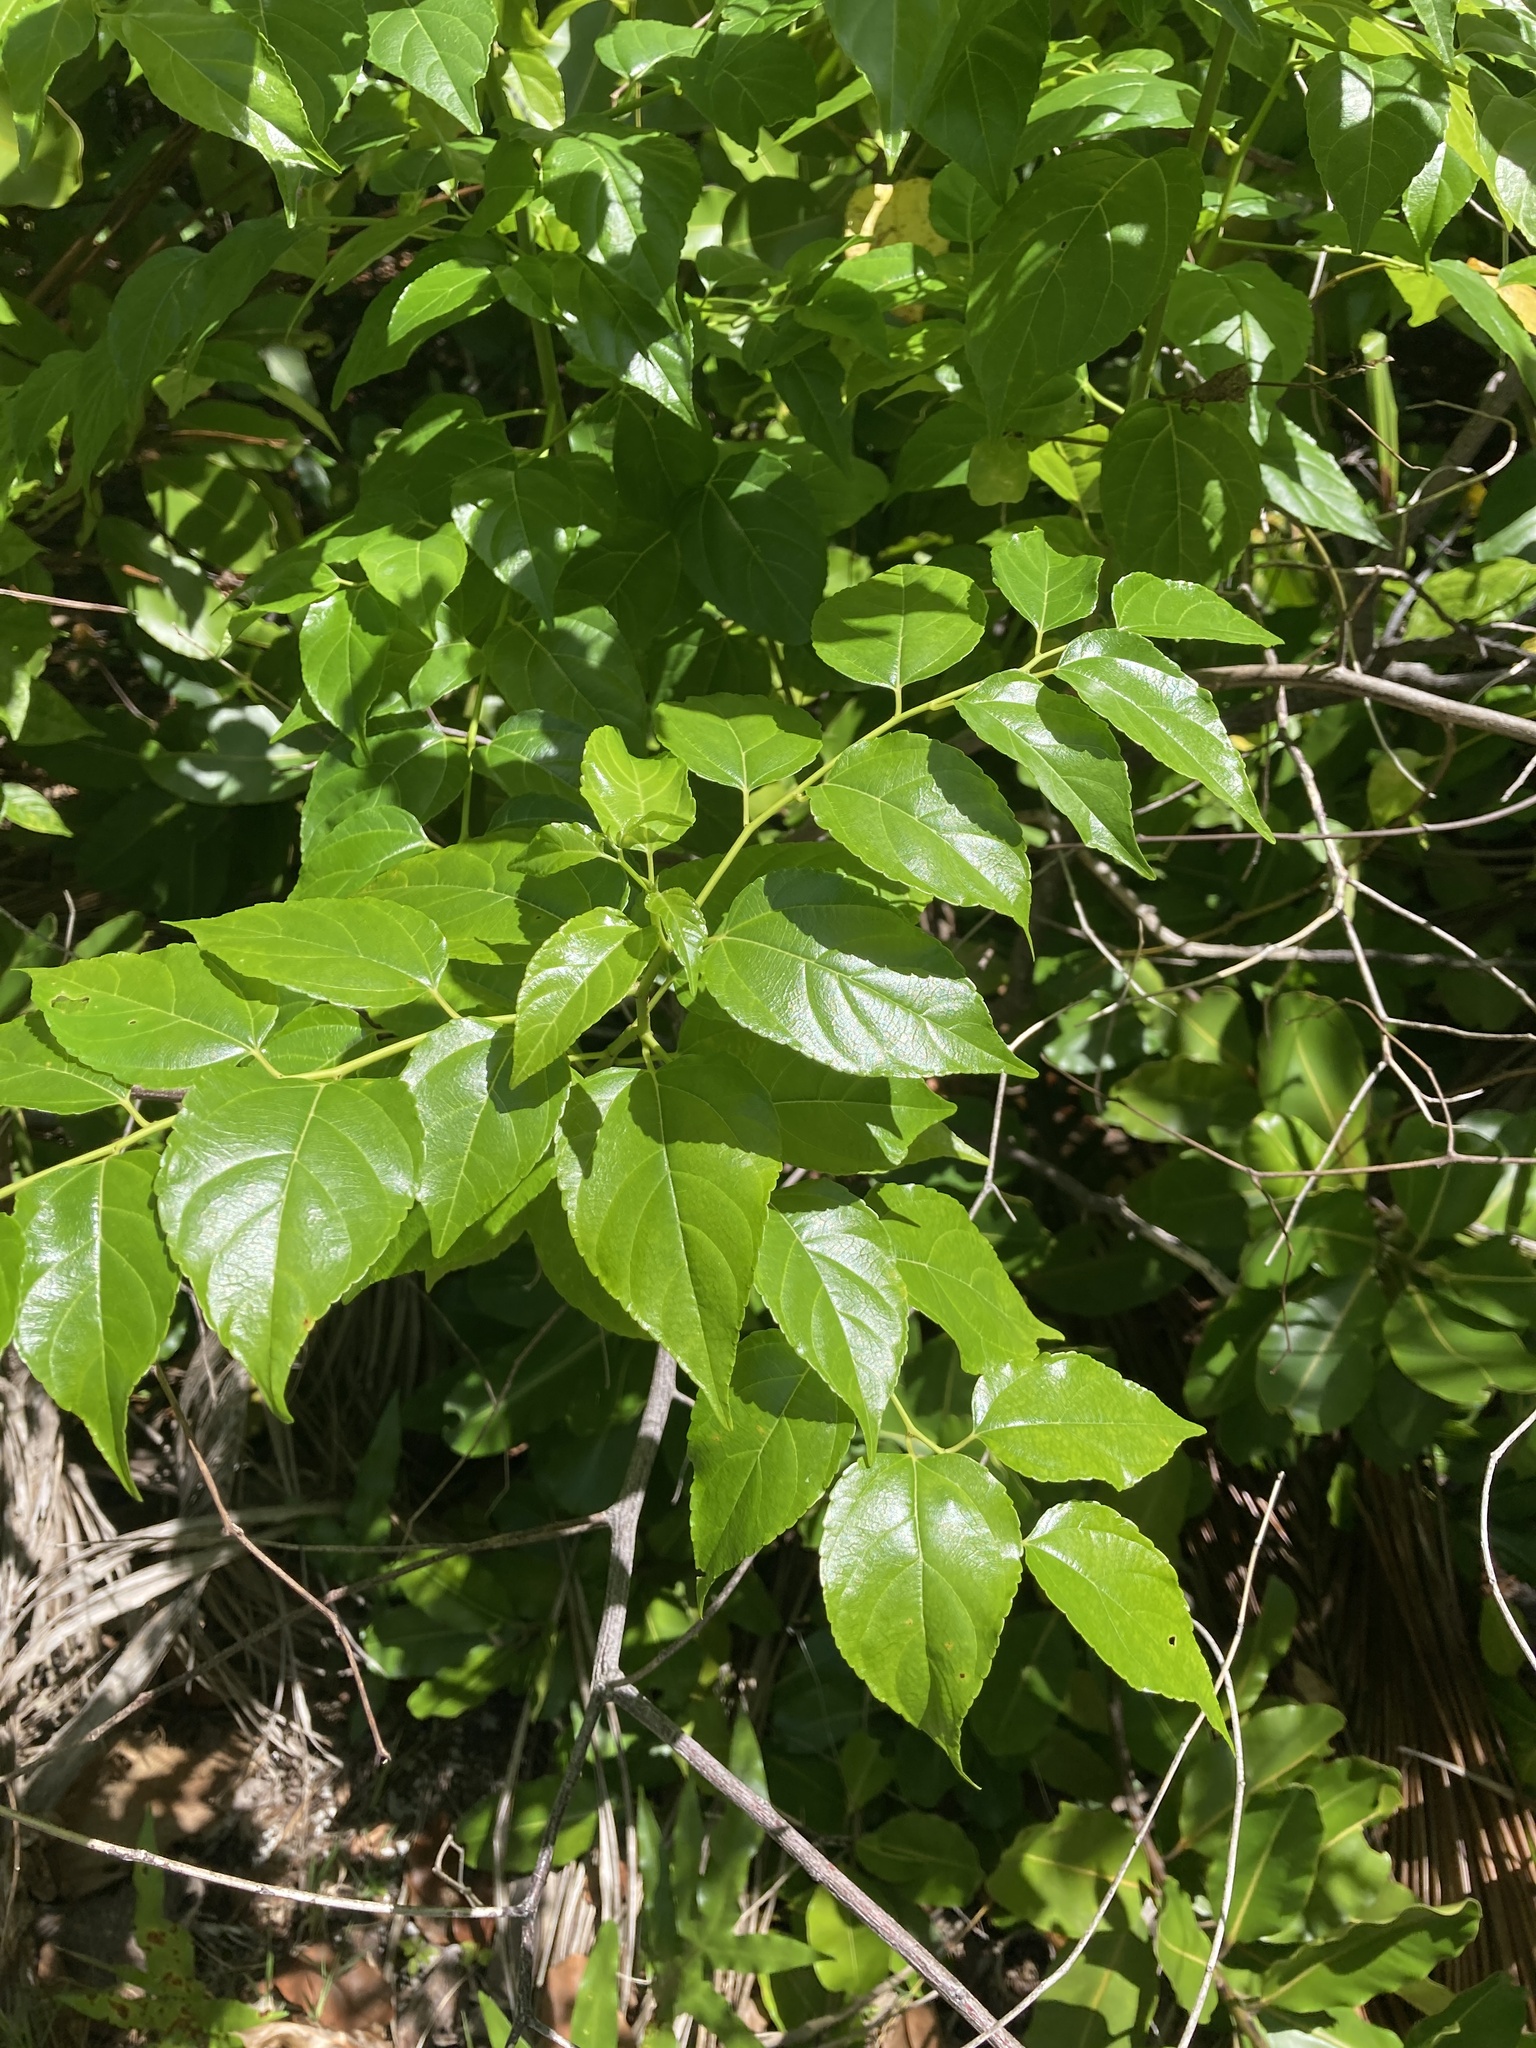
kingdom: Plantae
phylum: Tracheophyta
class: Magnoliopsida
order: Rosales
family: Rhamnaceae
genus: Colubrina
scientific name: Colubrina asiatica
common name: Asian nakedwood
